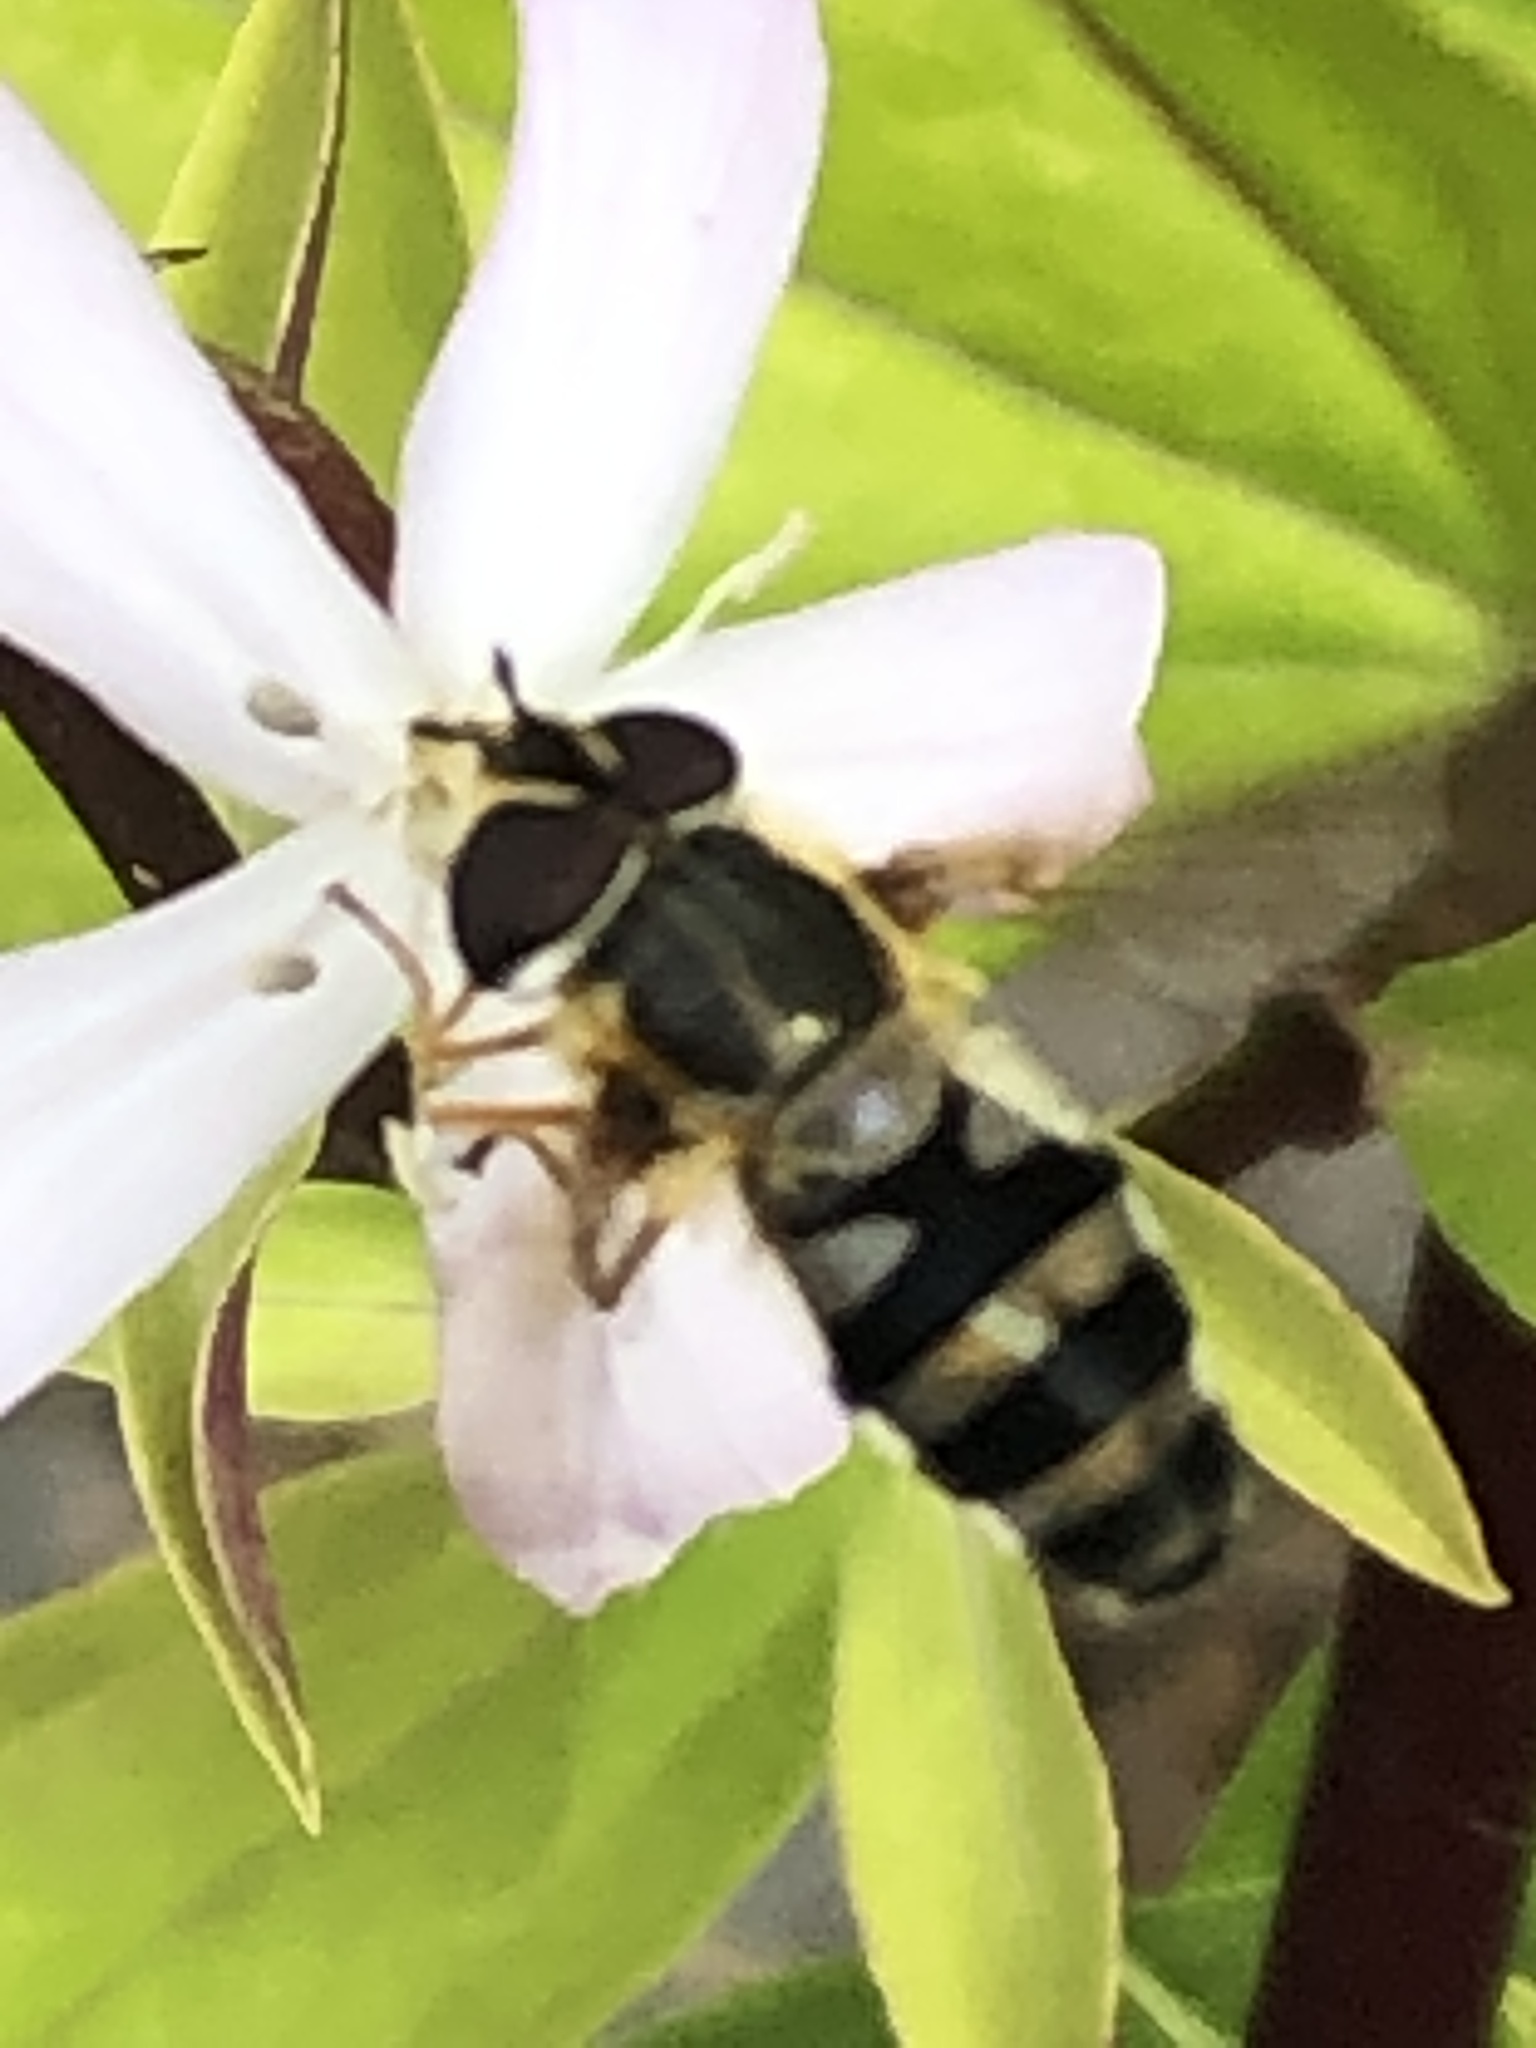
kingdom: Animalia
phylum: Arthropoda
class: Insecta
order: Diptera
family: Syrphidae
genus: Epistrophe
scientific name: Epistrophe grossulariae
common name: Black-horned smoothtail
